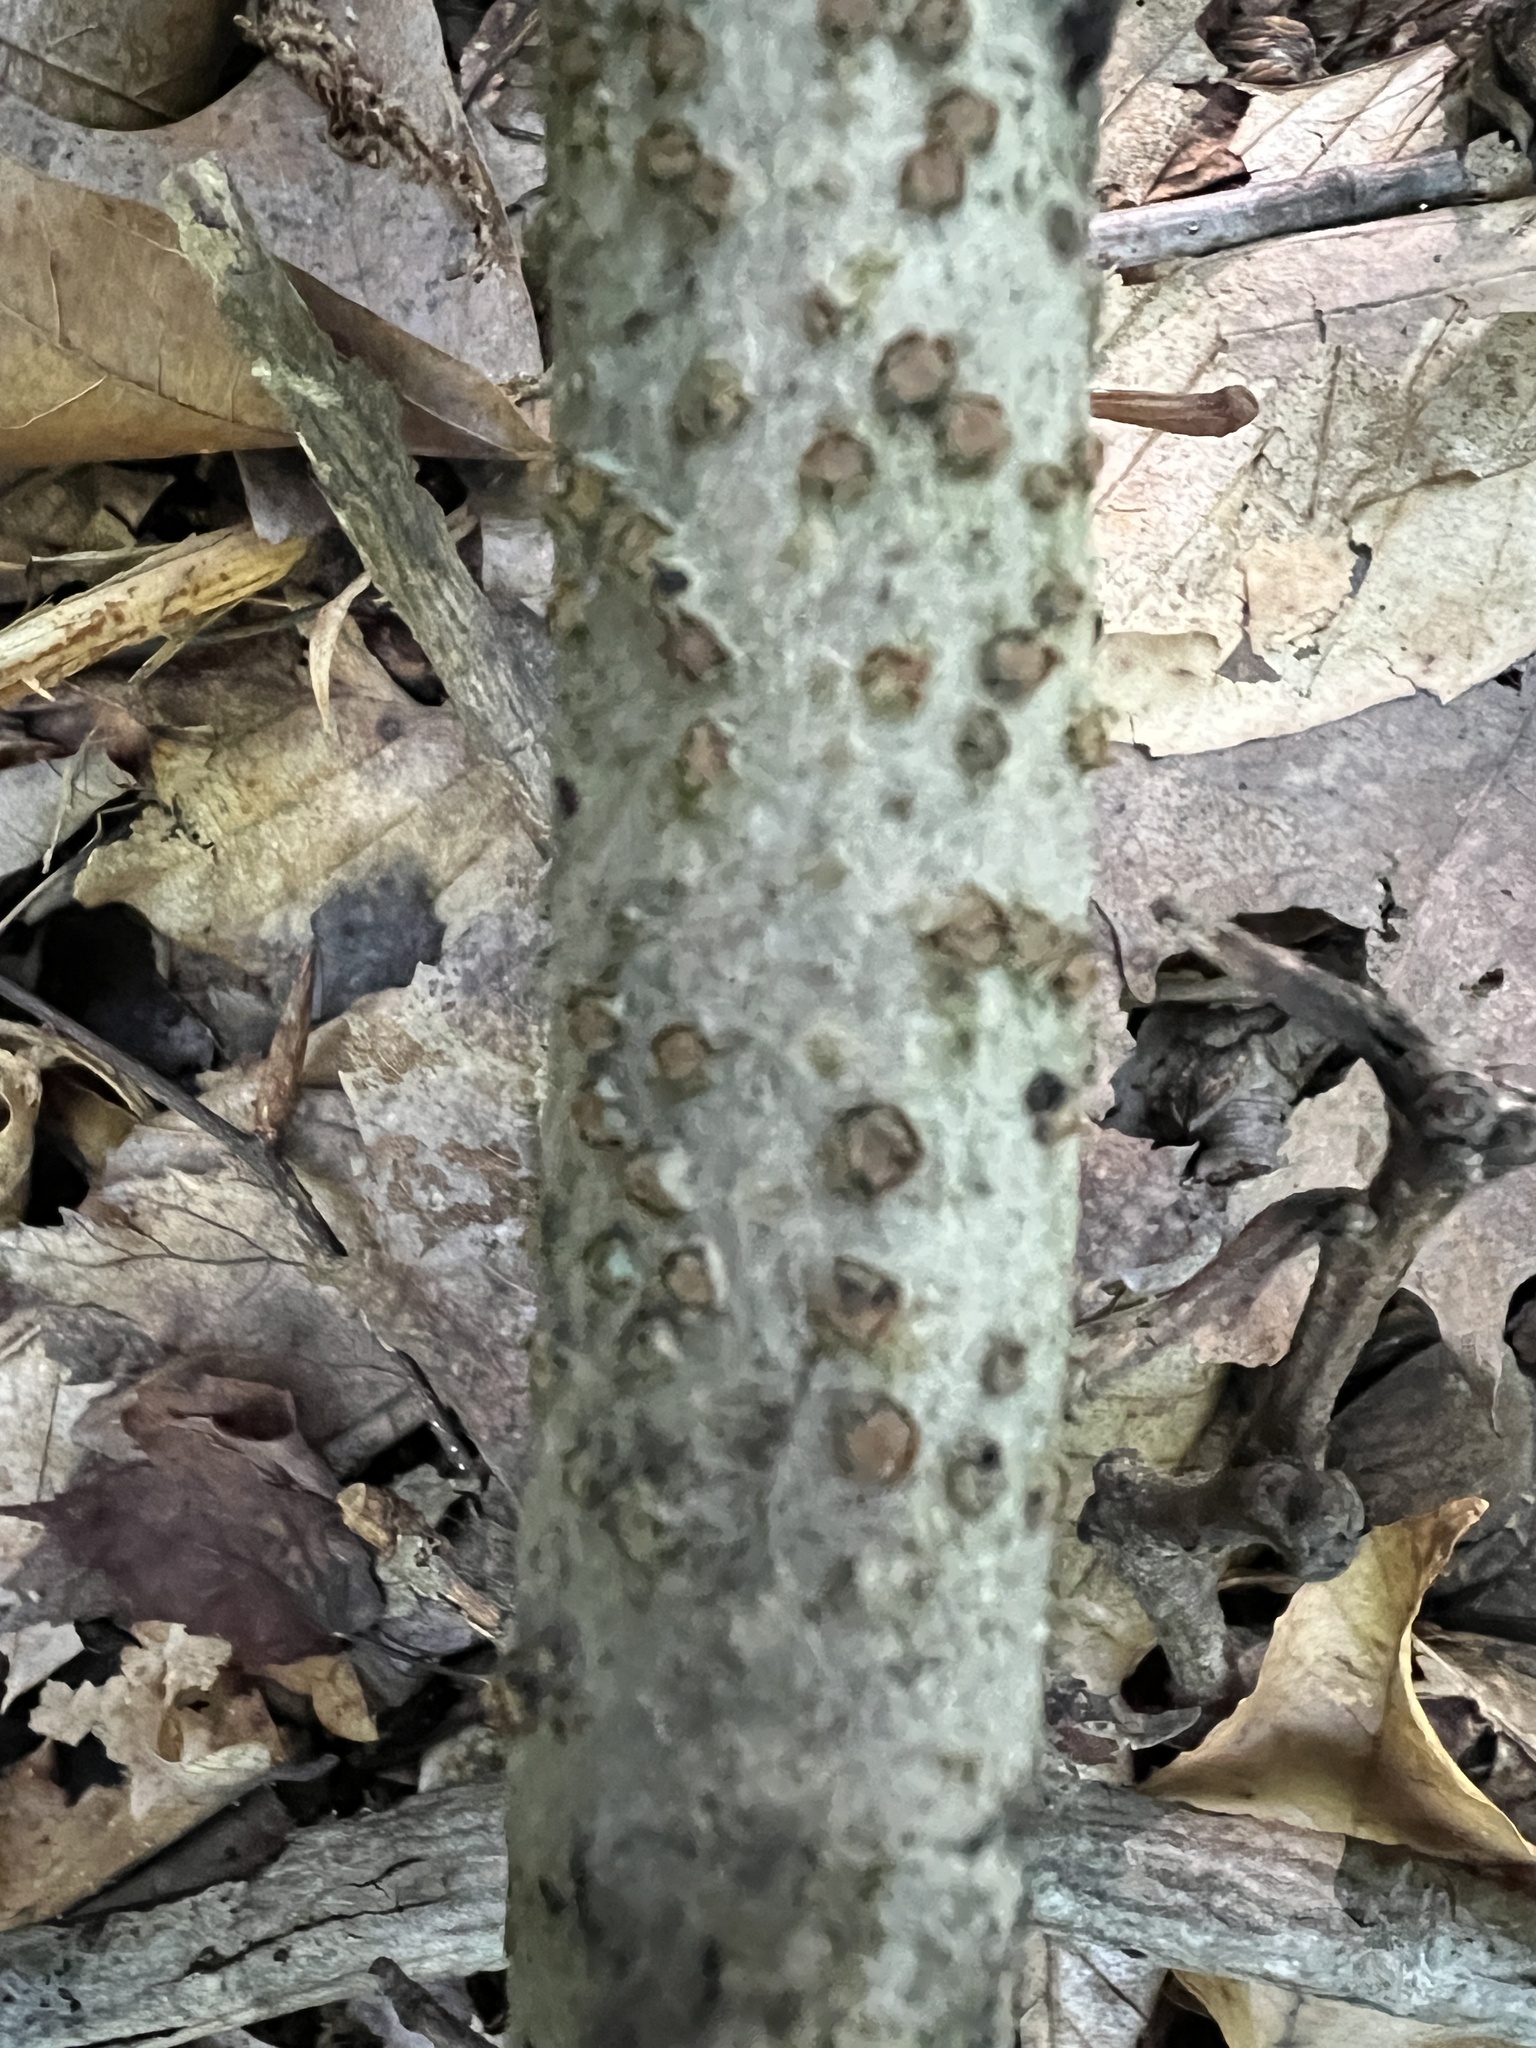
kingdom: Fungi
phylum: Ascomycota
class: Sordariomycetes
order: Xylariales
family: Diatrypaceae
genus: Diatrype
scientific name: Diatrype virescens
